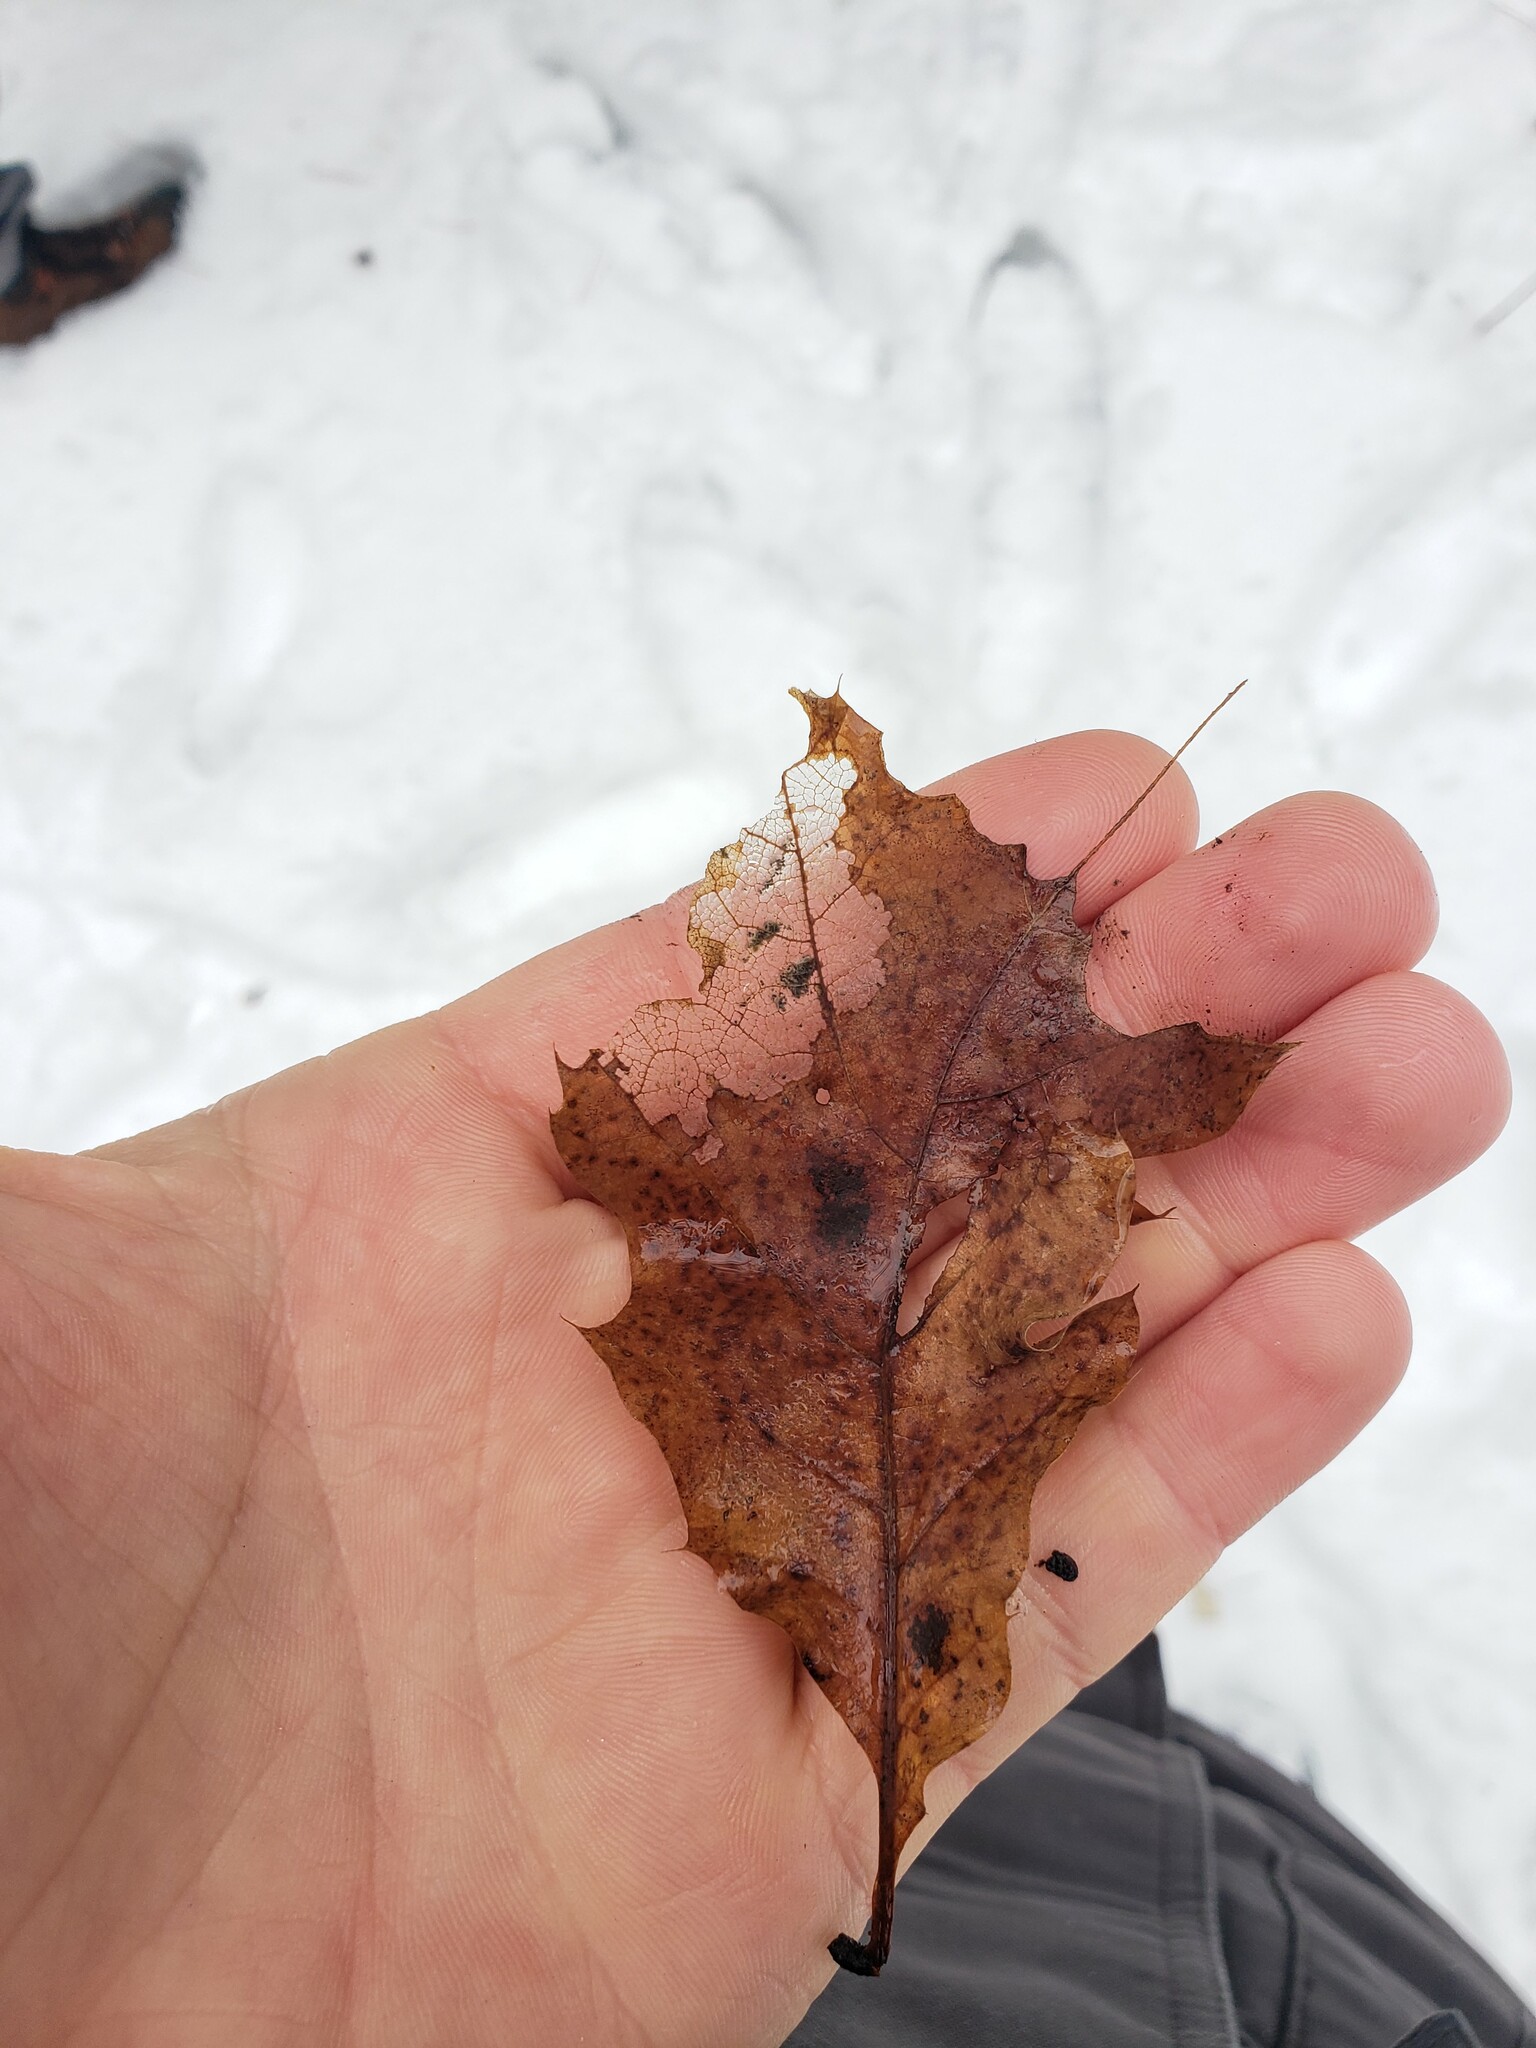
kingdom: Plantae
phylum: Tracheophyta
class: Magnoliopsida
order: Fagales
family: Fagaceae
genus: Quercus
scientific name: Quercus rubra
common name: Red oak
